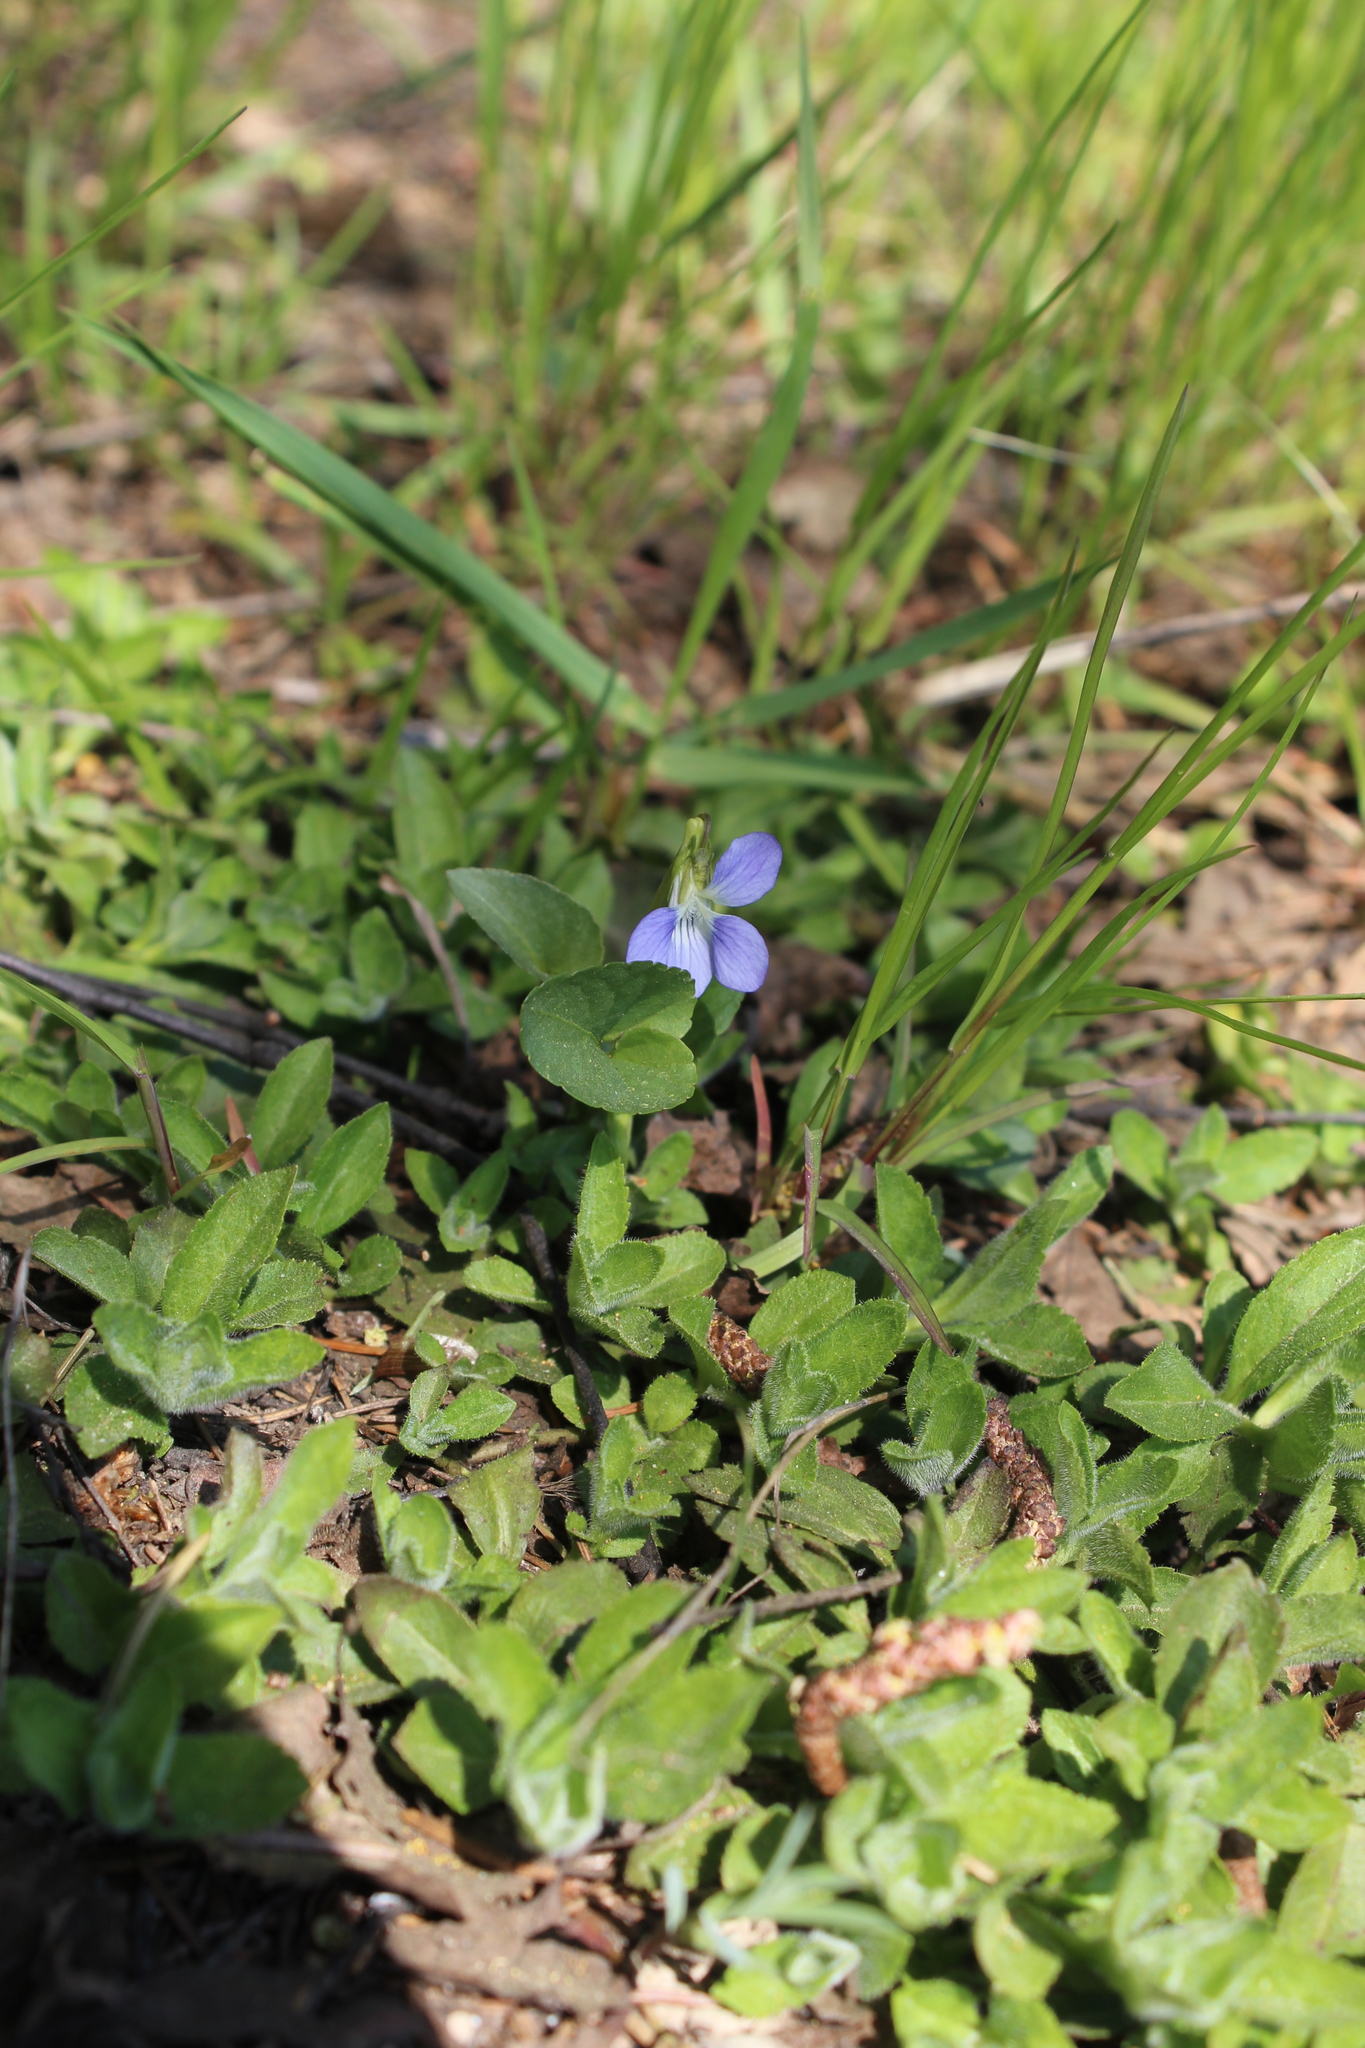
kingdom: Plantae
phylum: Tracheophyta
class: Magnoliopsida
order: Malpighiales
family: Violaceae
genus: Viola
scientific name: Viola canina
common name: Heath dog-violet
